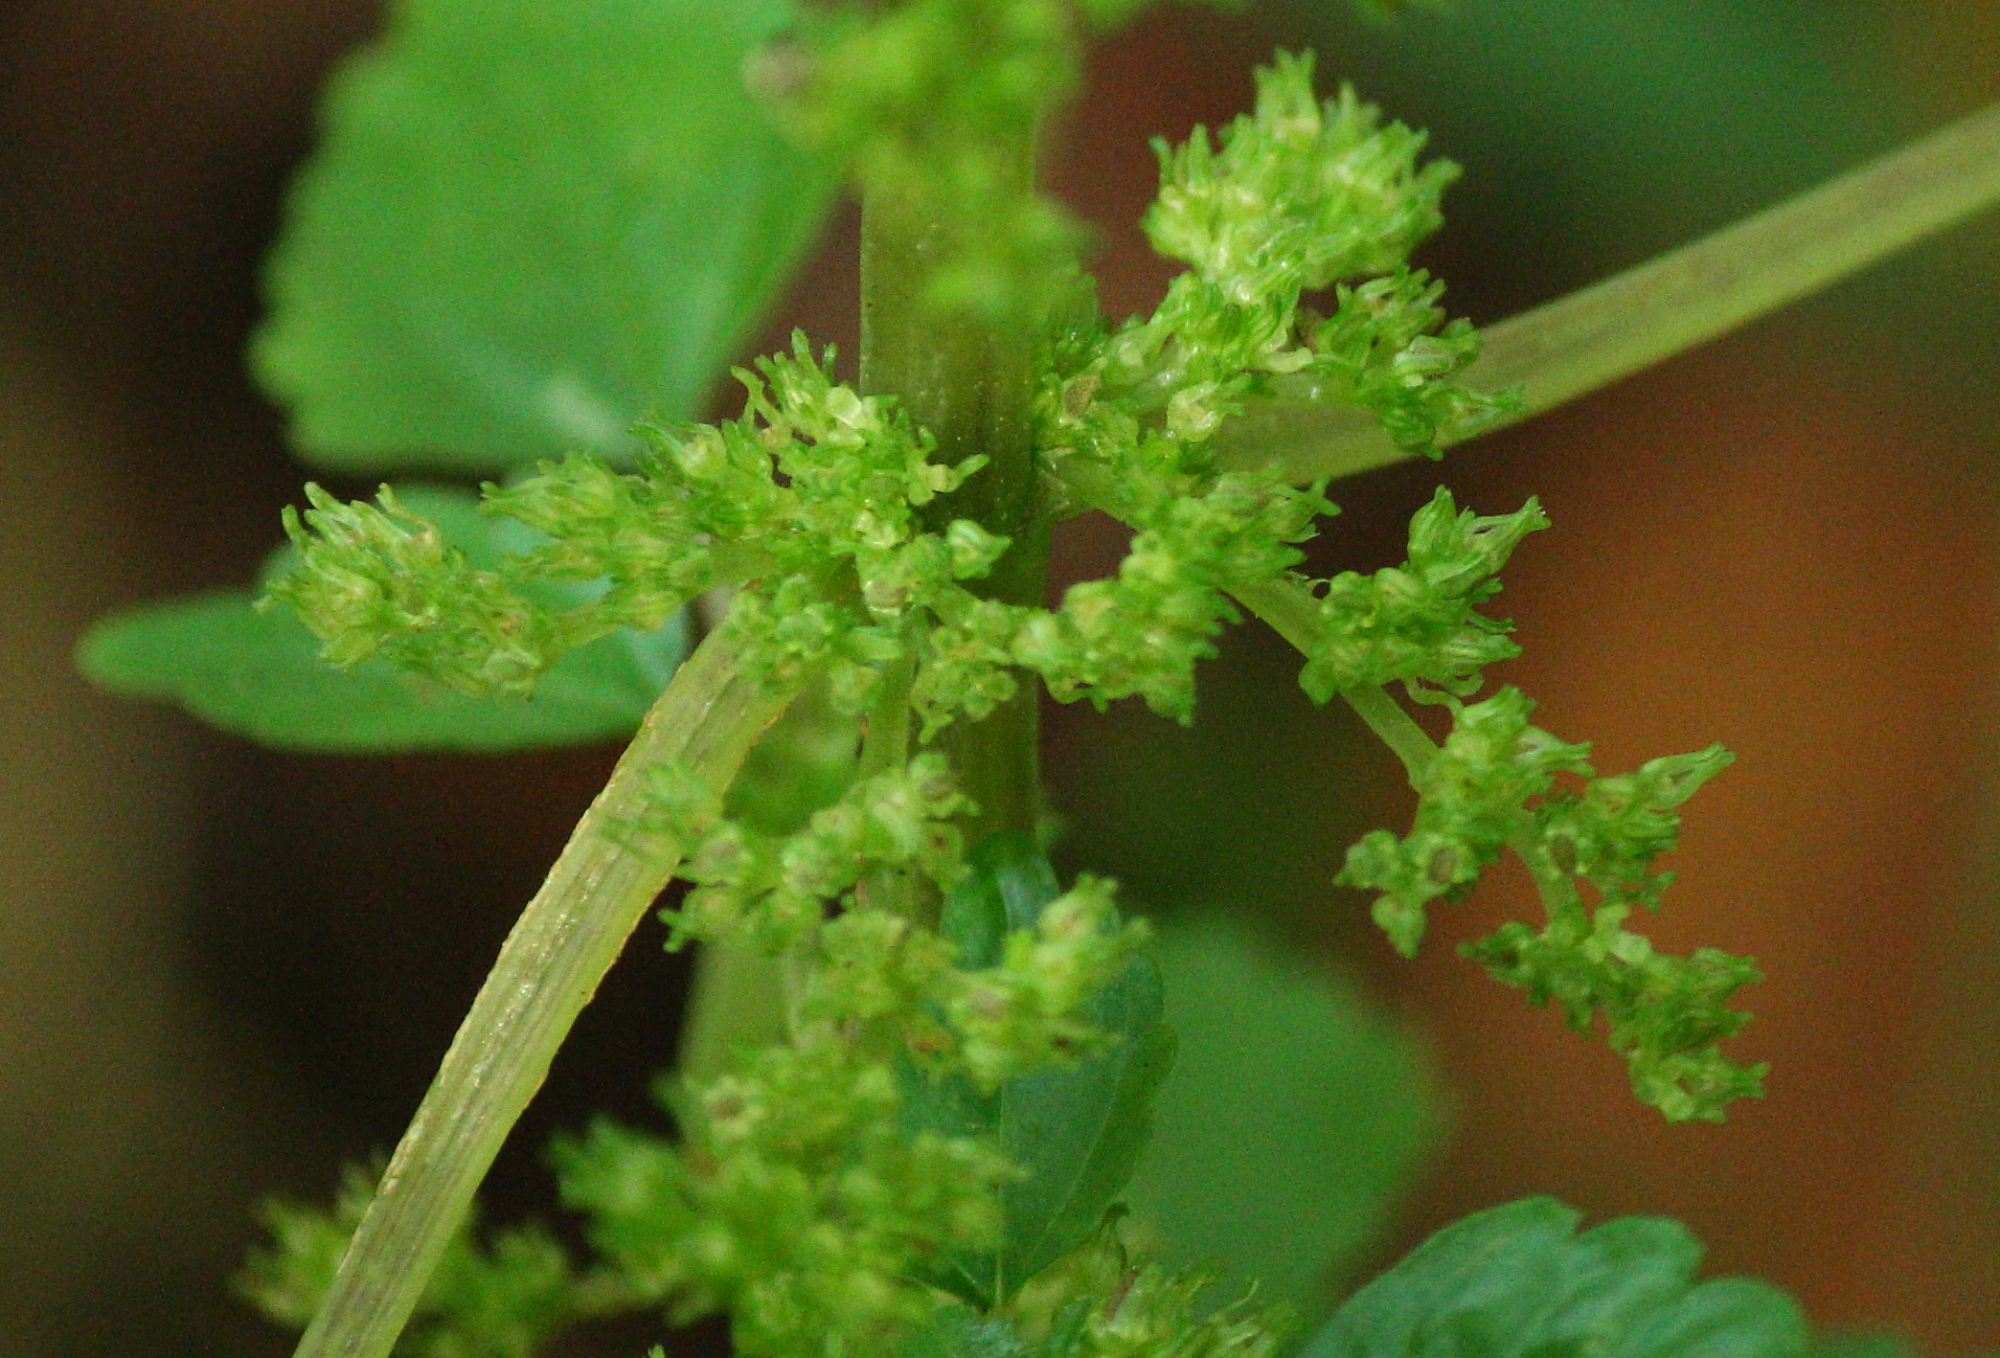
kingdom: Plantae
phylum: Tracheophyta
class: Magnoliopsida
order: Rosales
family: Urticaceae
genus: Pilea
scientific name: Pilea pumila
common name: Clearweed
